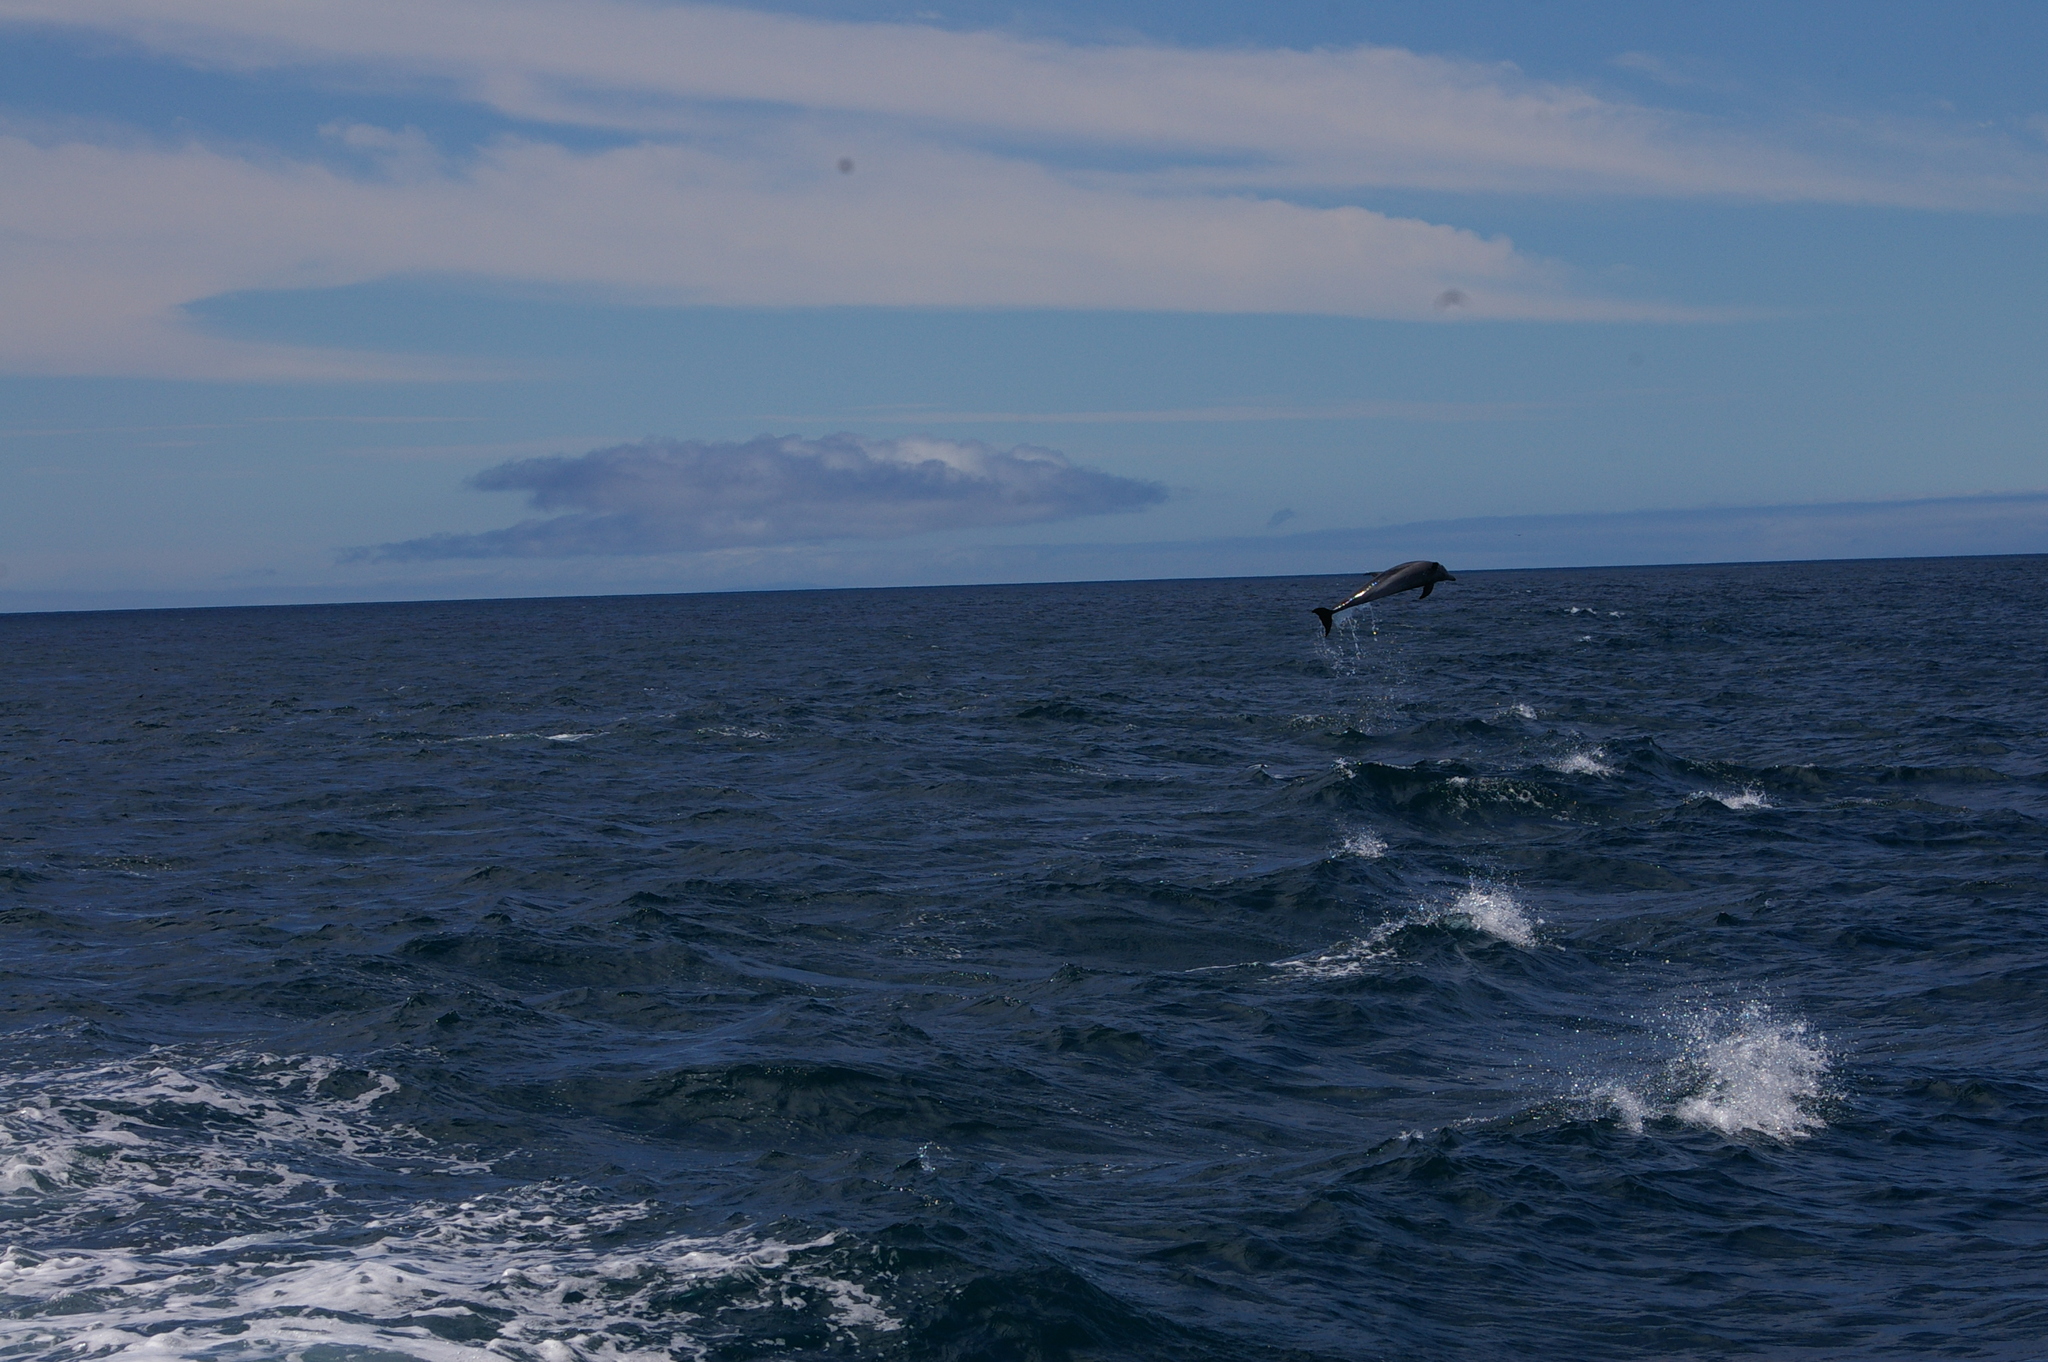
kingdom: Animalia
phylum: Chordata
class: Mammalia
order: Cetacea
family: Delphinidae
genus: Tursiops
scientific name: Tursiops truncatus
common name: Bottlenose dolphin
